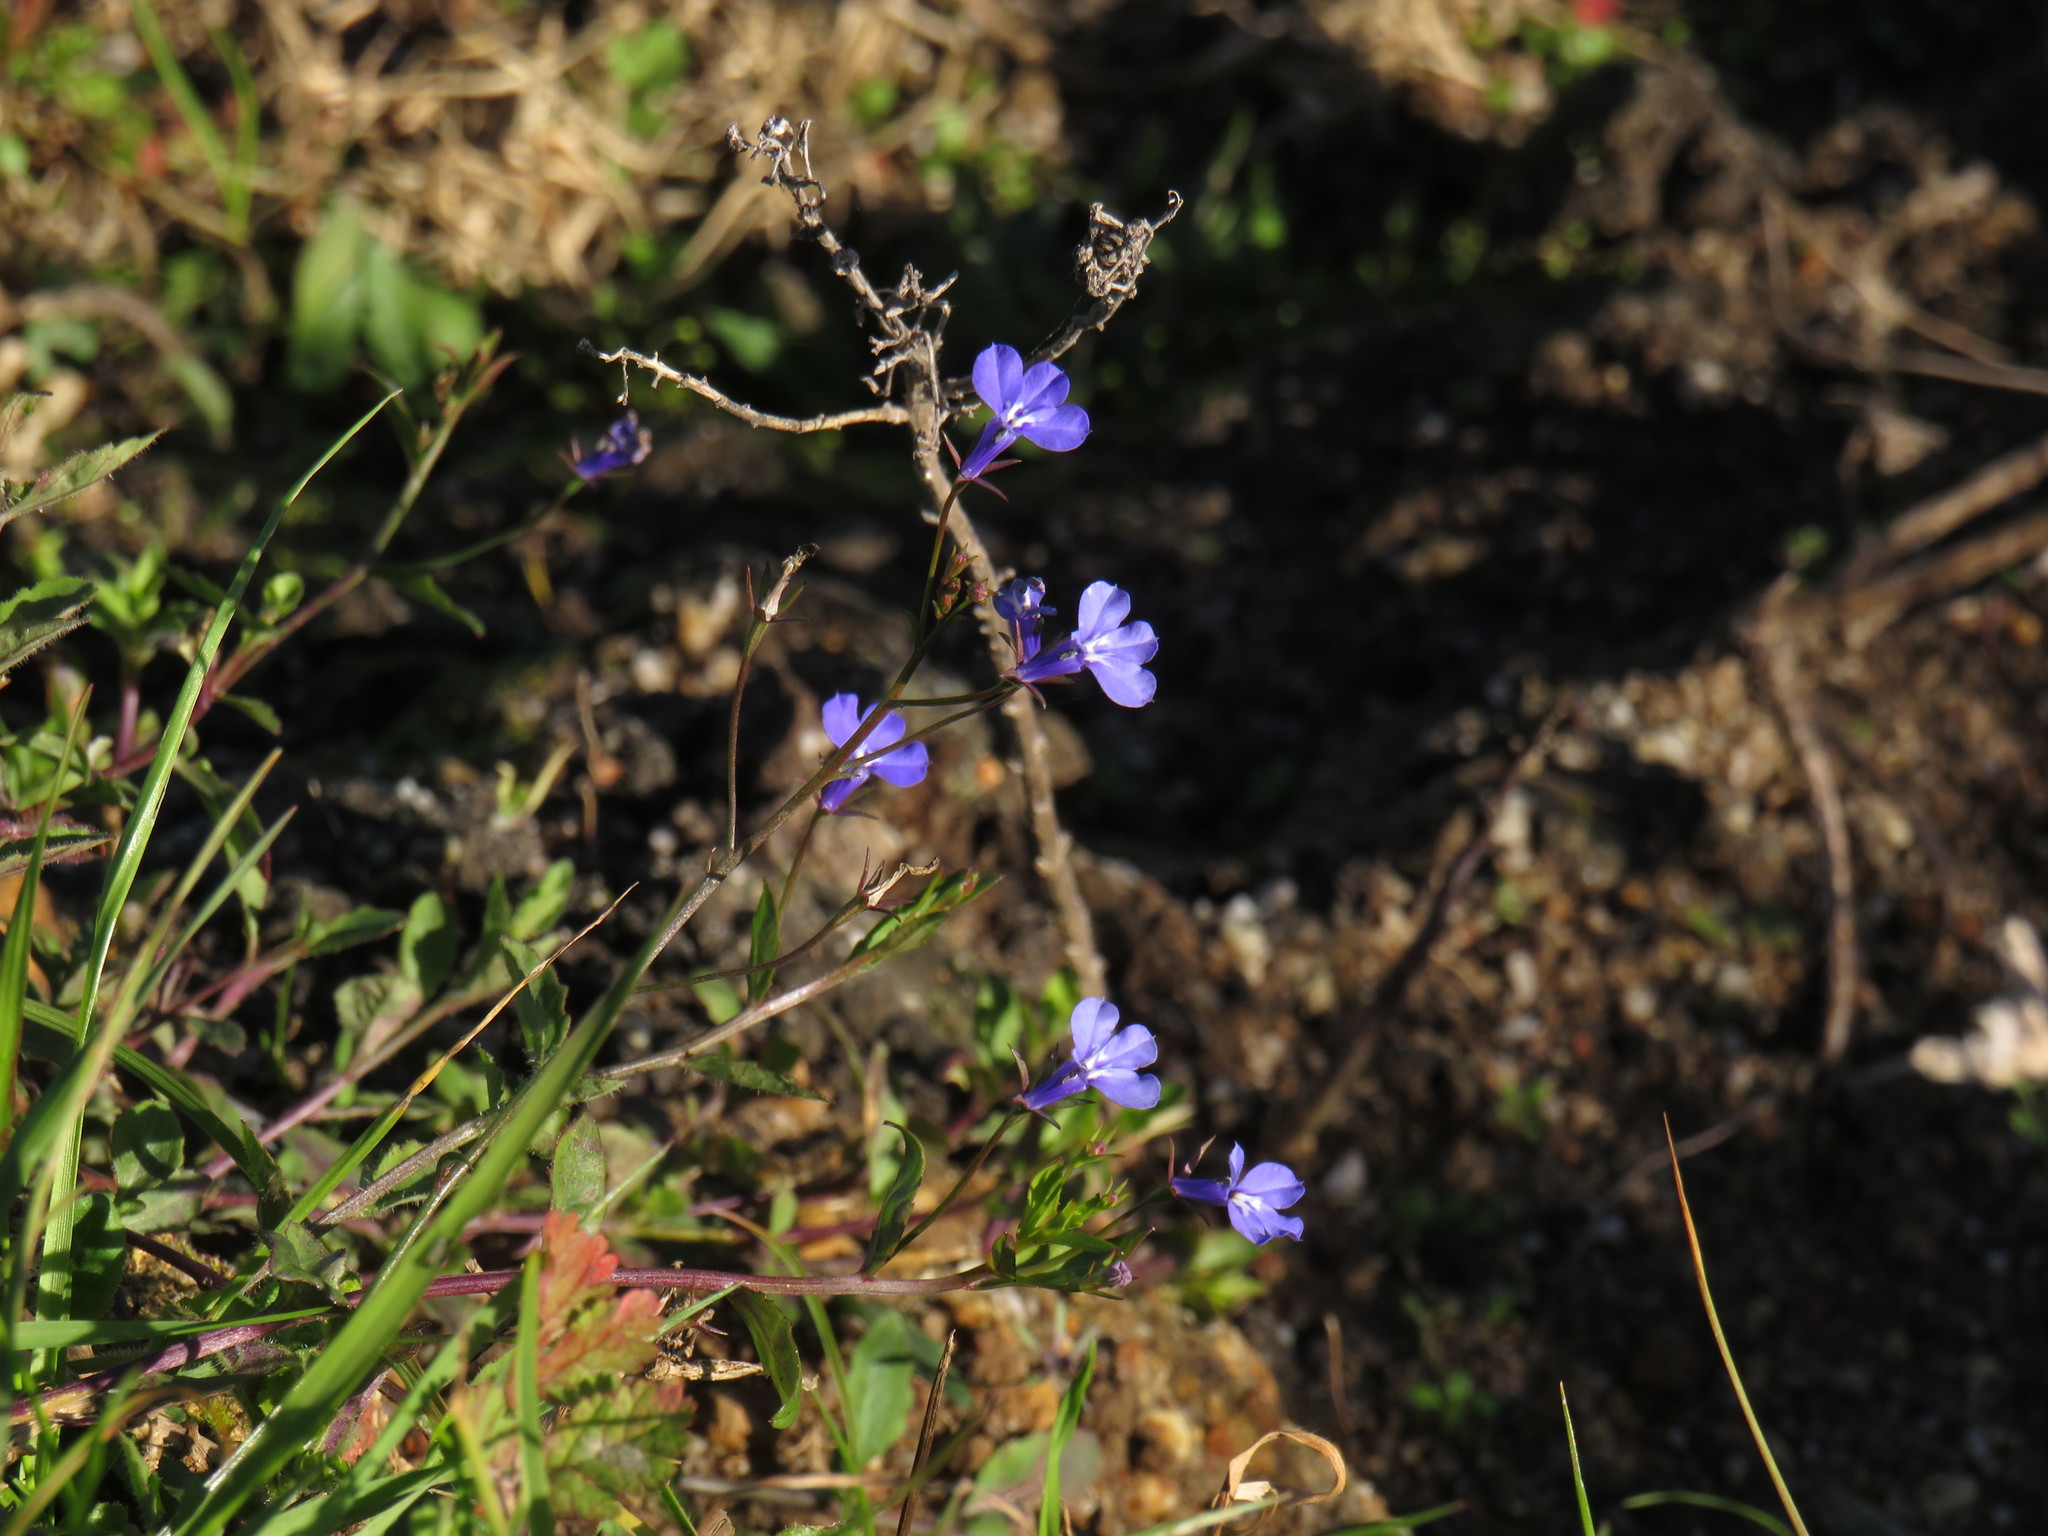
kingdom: Plantae
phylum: Tracheophyta
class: Magnoliopsida
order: Asterales
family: Campanulaceae
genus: Lobelia
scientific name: Lobelia erinus
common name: Edging lobelia
